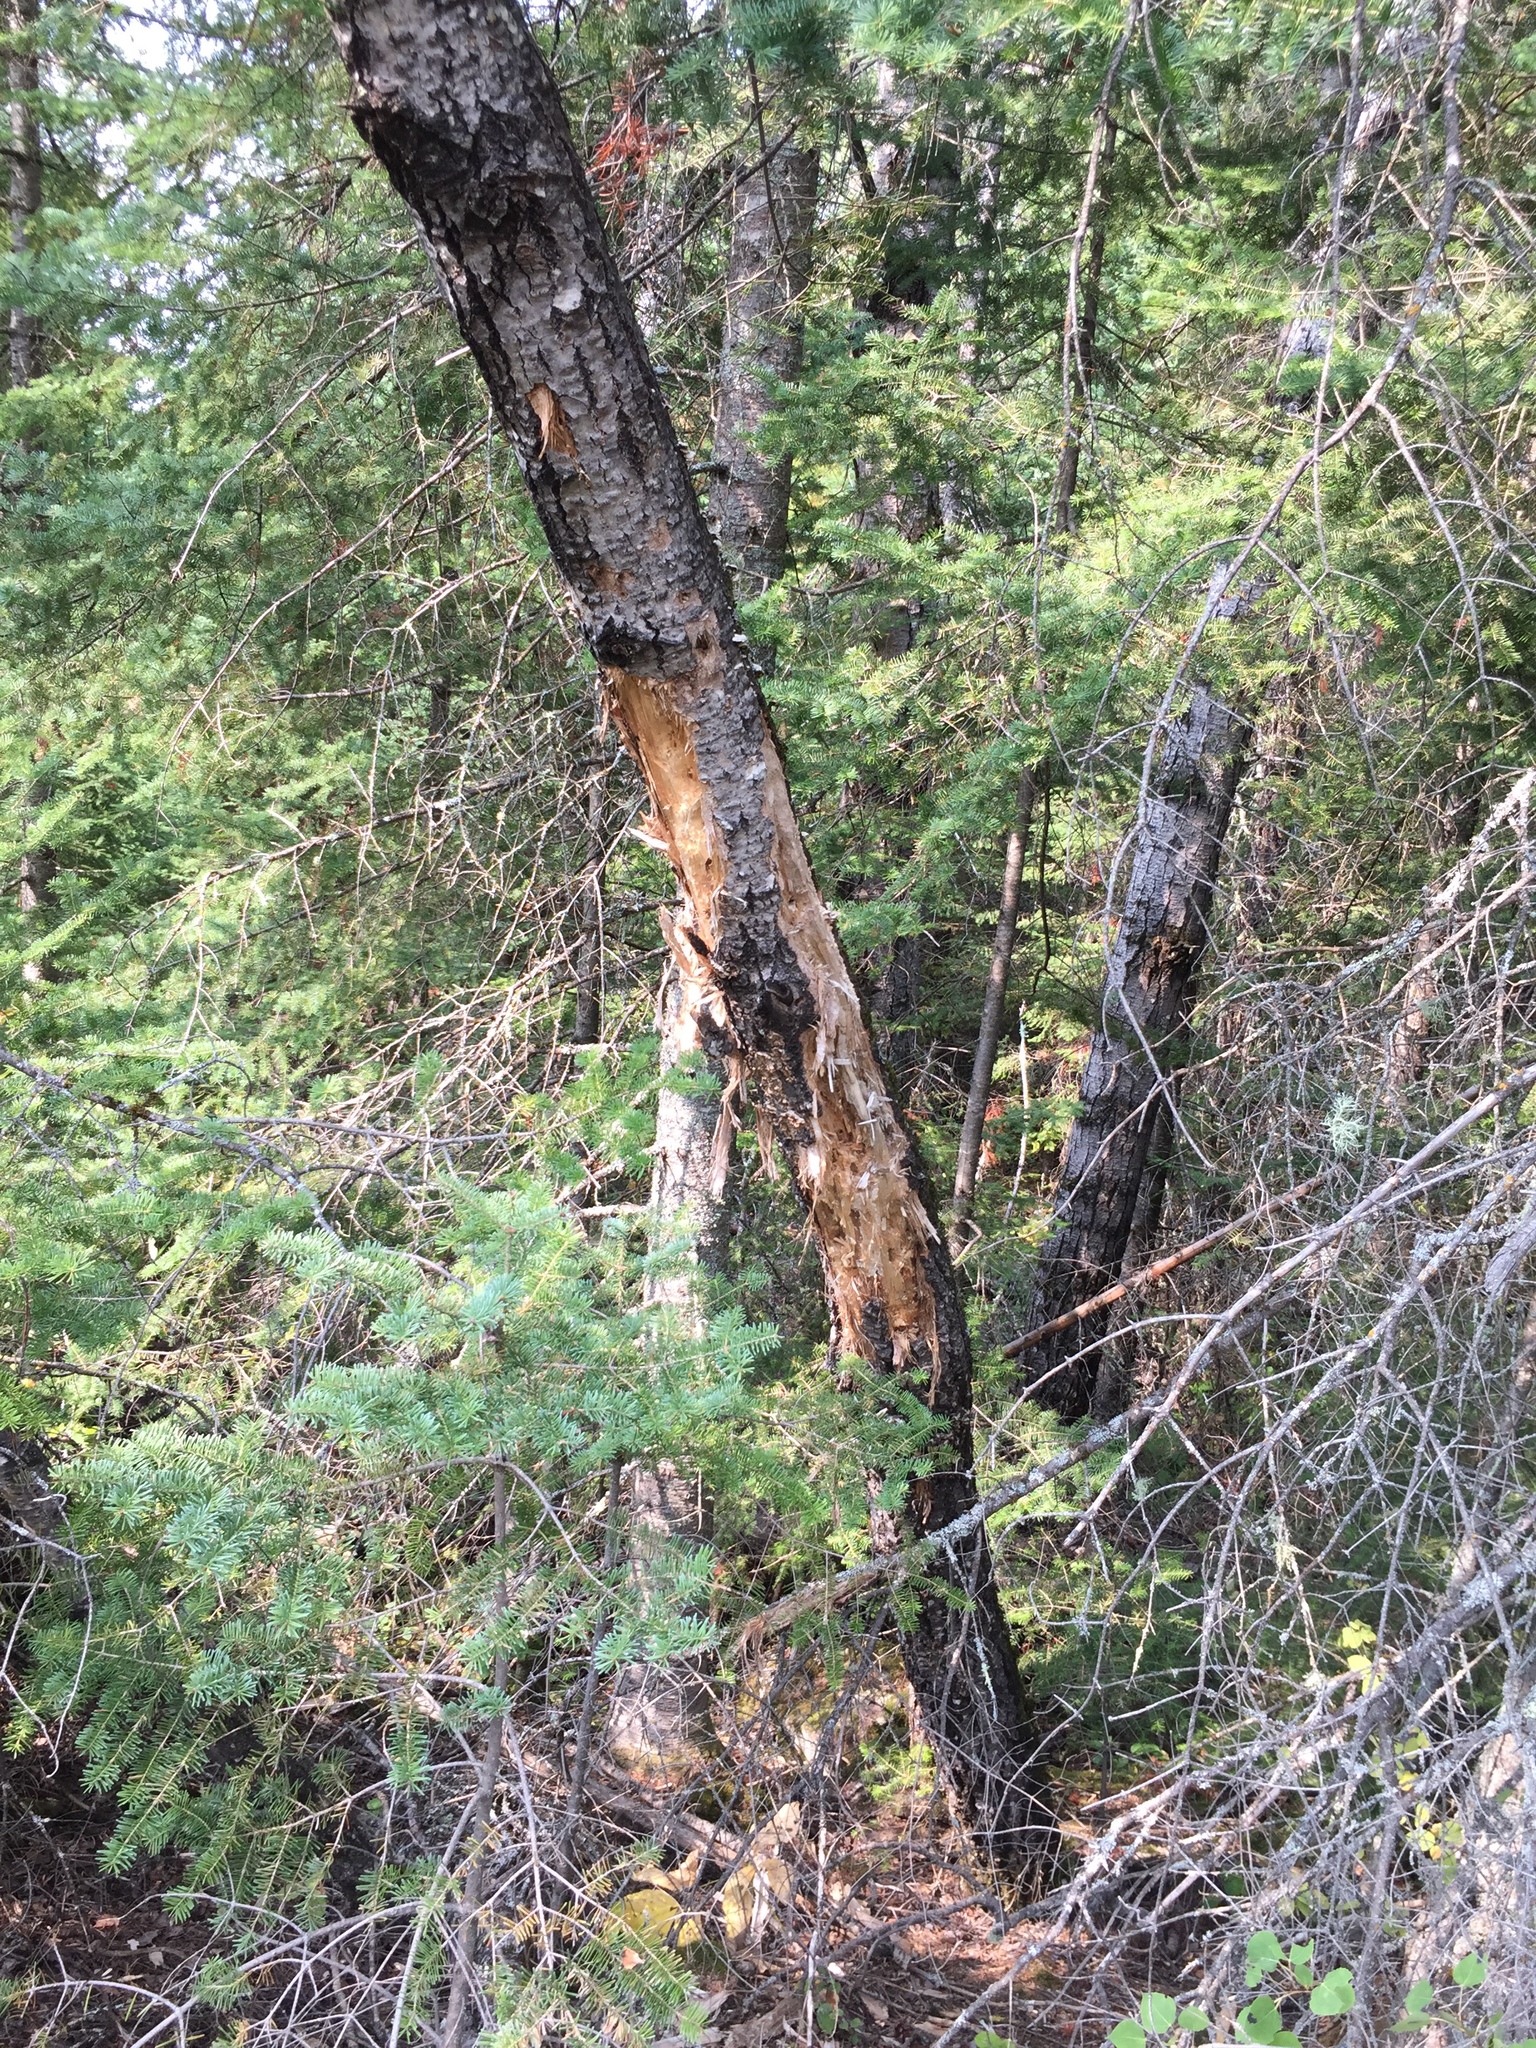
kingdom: Animalia
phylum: Chordata
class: Aves
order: Piciformes
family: Picidae
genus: Dryocopus
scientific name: Dryocopus pileatus
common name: Pileated woodpecker
